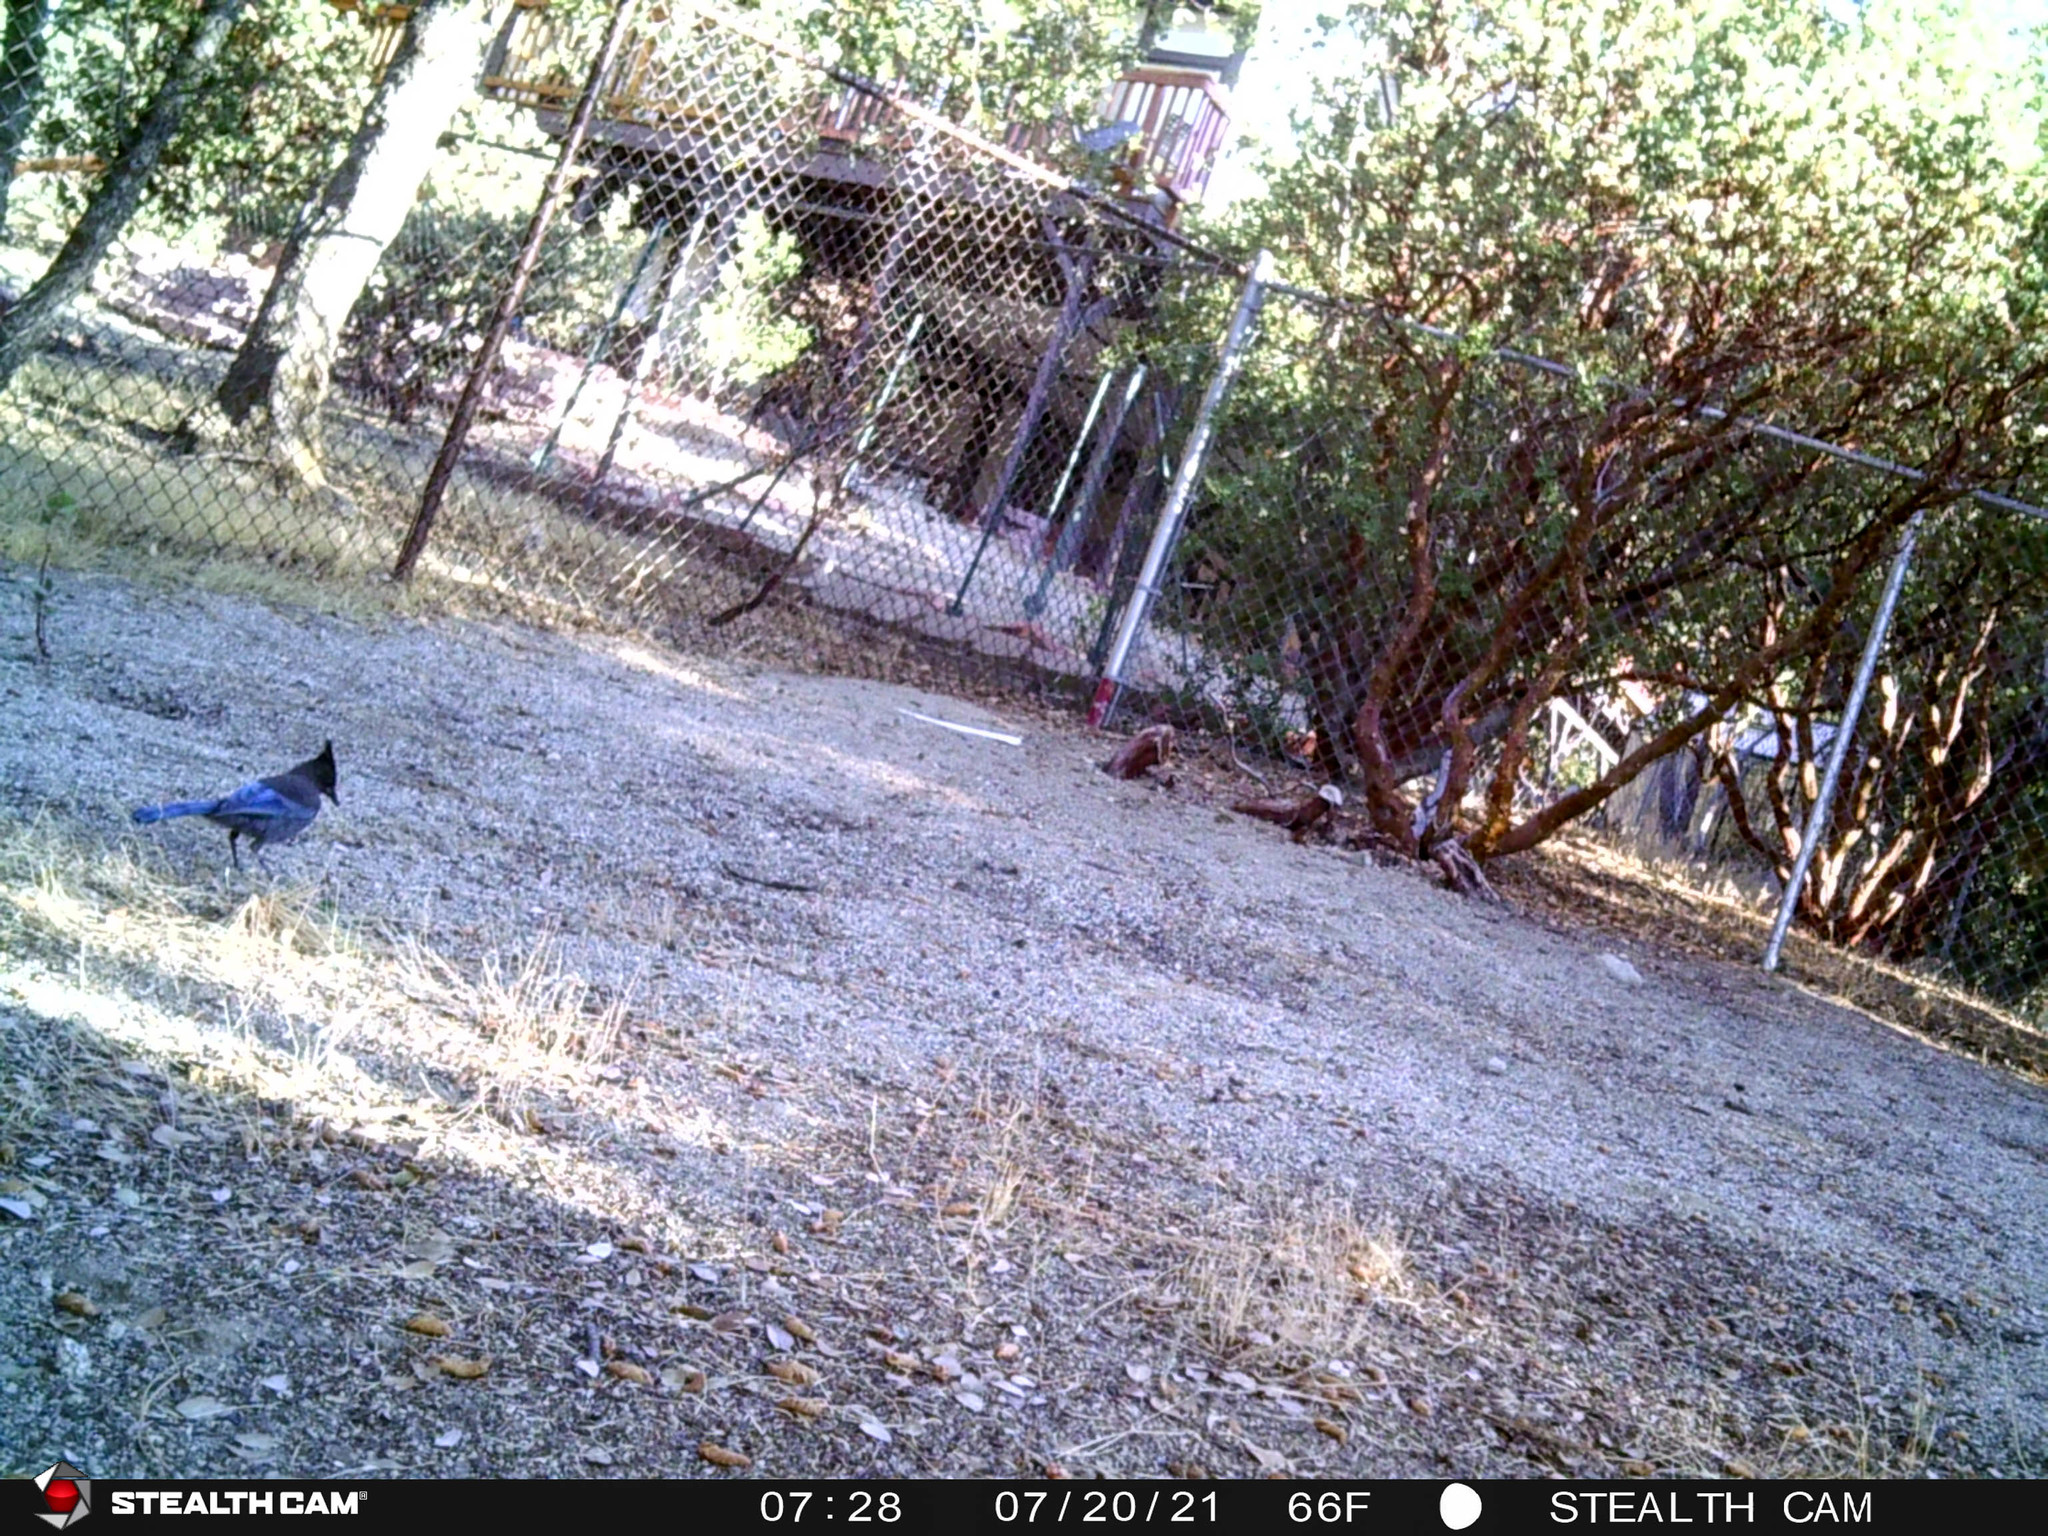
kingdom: Animalia
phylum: Chordata
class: Aves
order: Passeriformes
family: Corvidae
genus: Cyanocitta
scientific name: Cyanocitta stelleri
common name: Steller's jay
